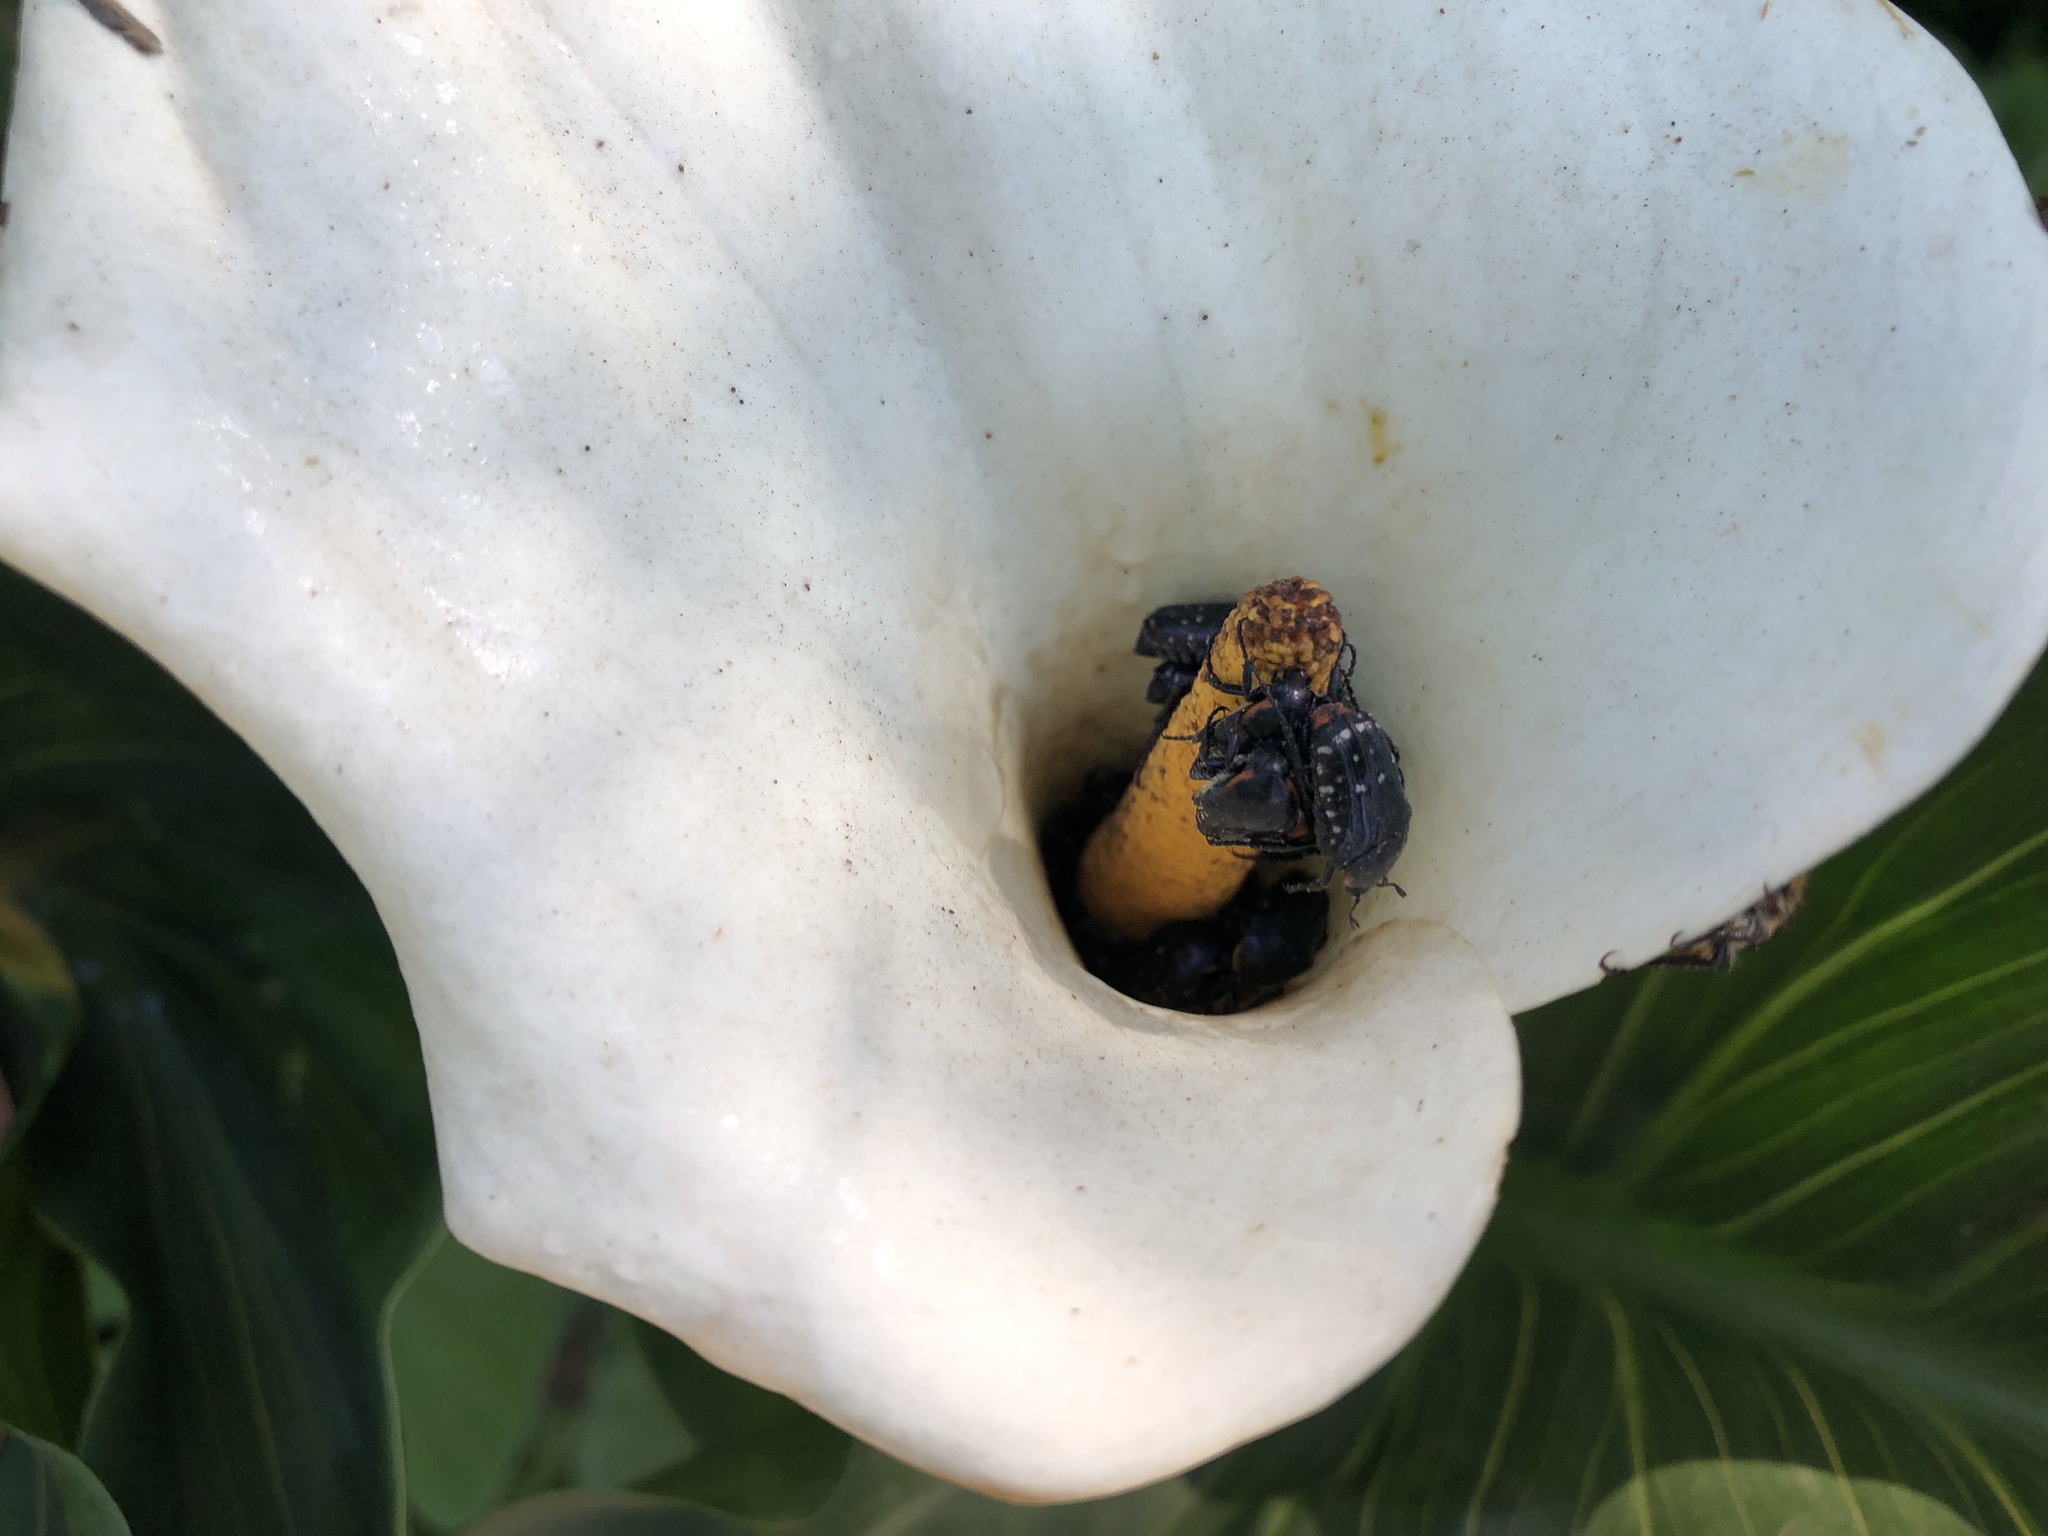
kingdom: Plantae
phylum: Tracheophyta
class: Liliopsida
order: Alismatales
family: Araceae
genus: Zantedeschia
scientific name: Zantedeschia aethiopica
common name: Altar-lily
